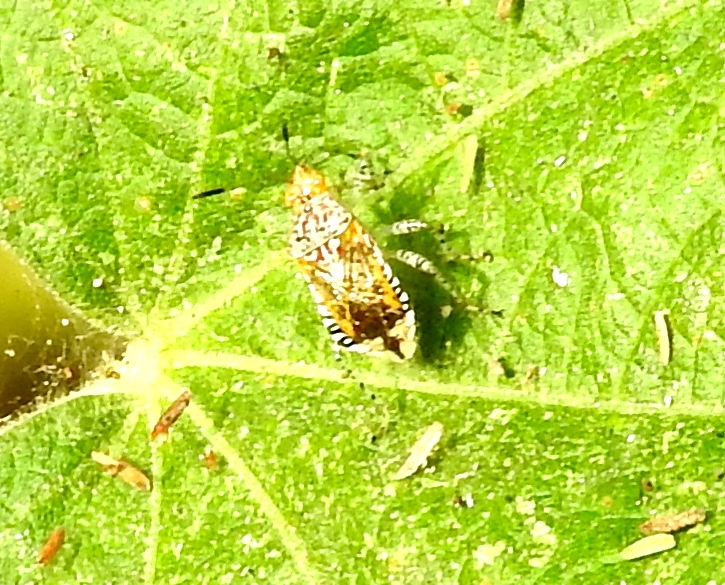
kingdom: Animalia
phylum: Arthropoda
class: Insecta
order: Hemiptera
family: Rhopalidae
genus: Niesthrea
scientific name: Niesthrea
